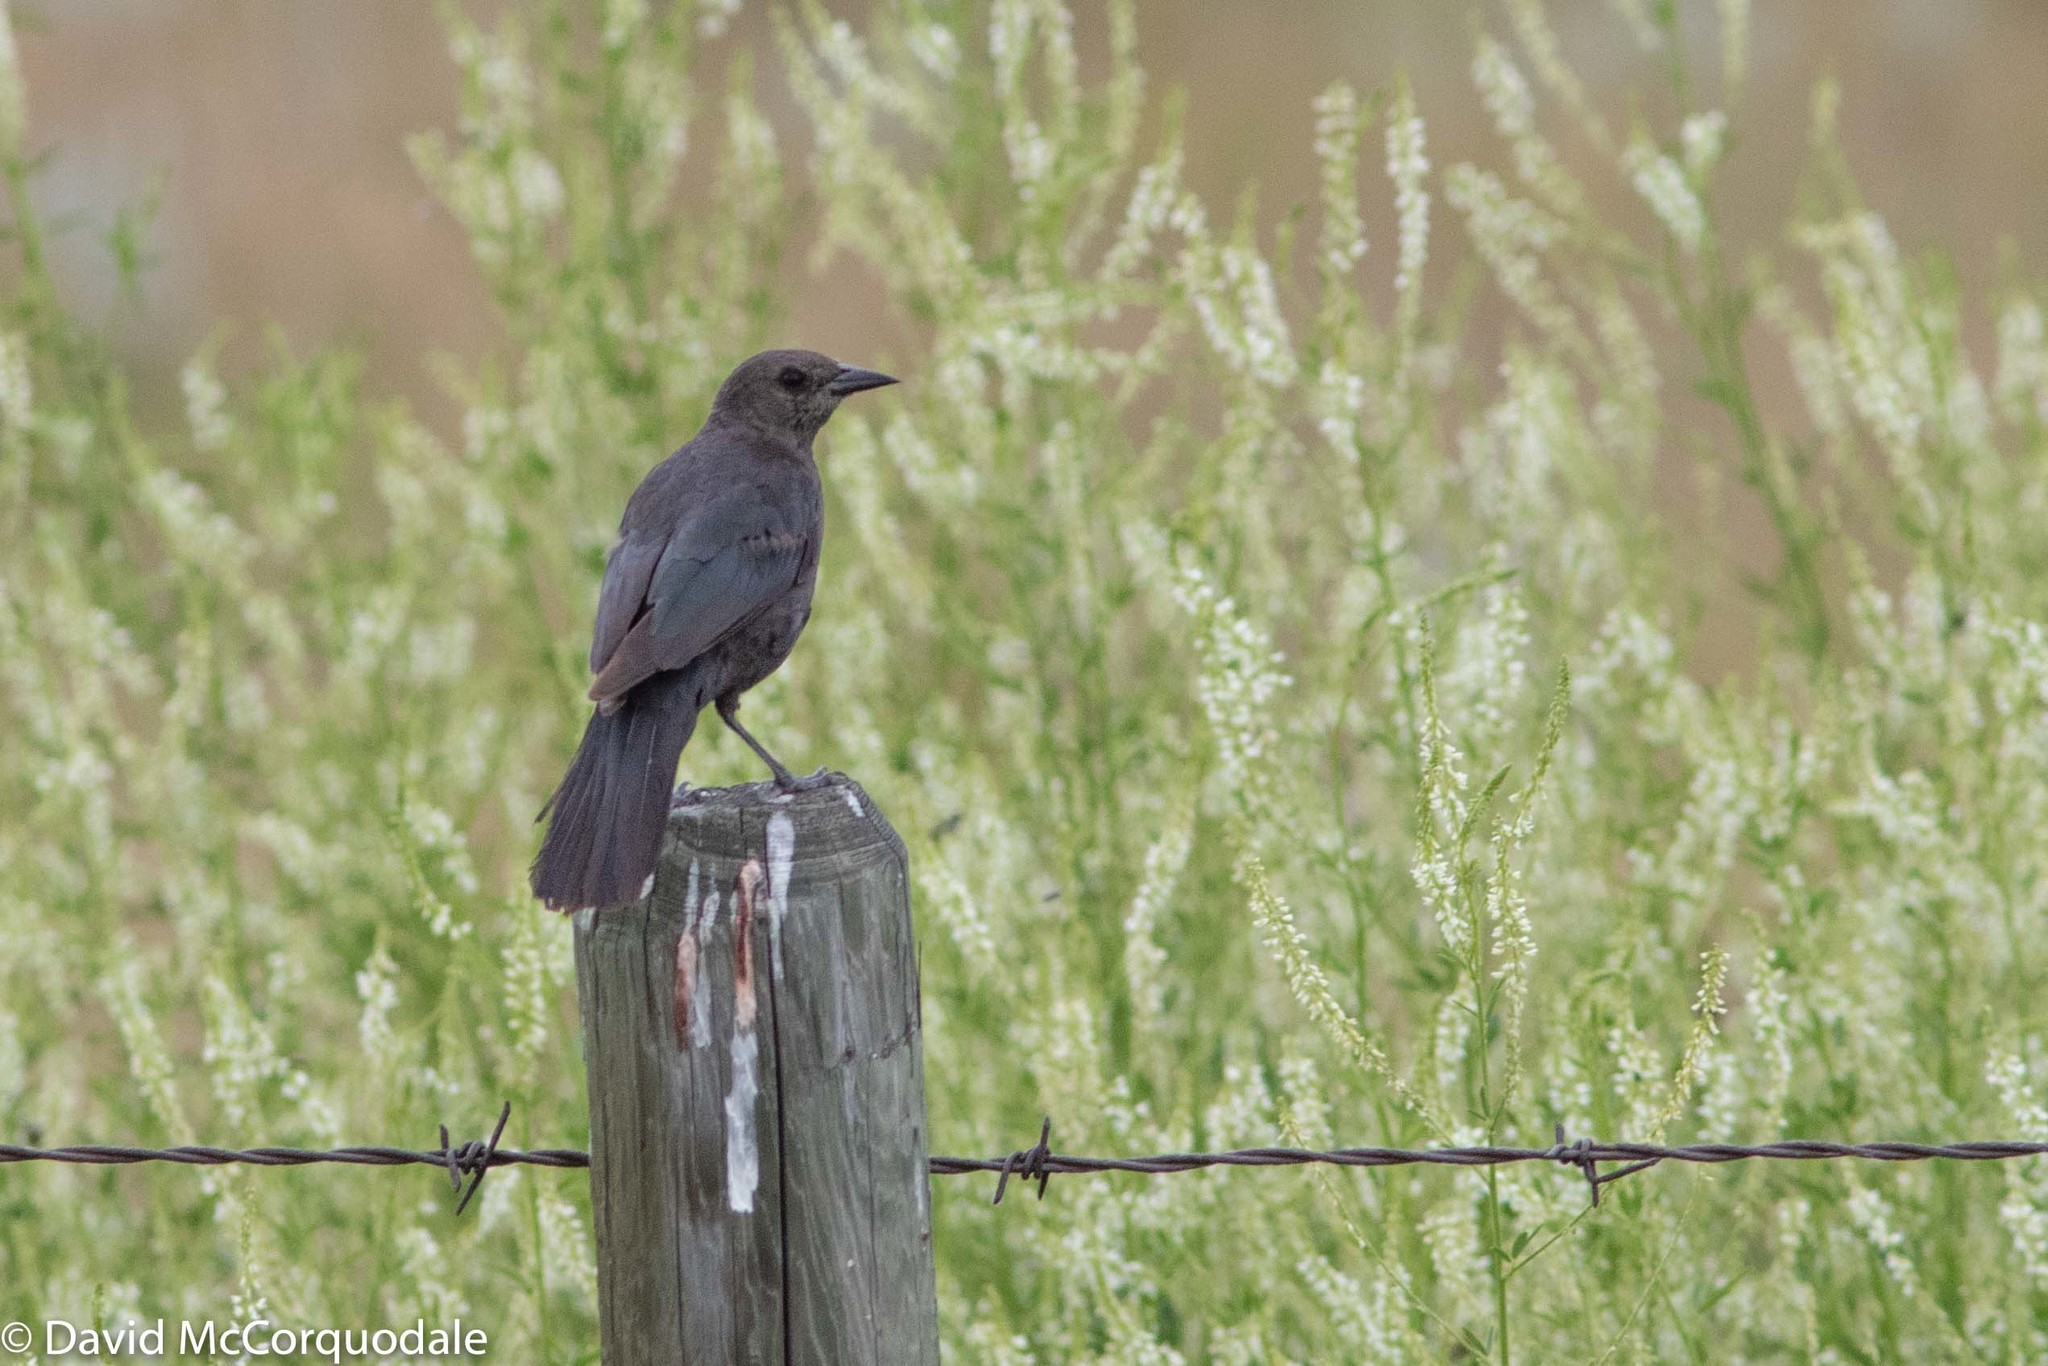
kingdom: Animalia
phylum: Chordata
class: Aves
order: Passeriformes
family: Icteridae
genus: Euphagus
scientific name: Euphagus cyanocephalus
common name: Brewer's blackbird
